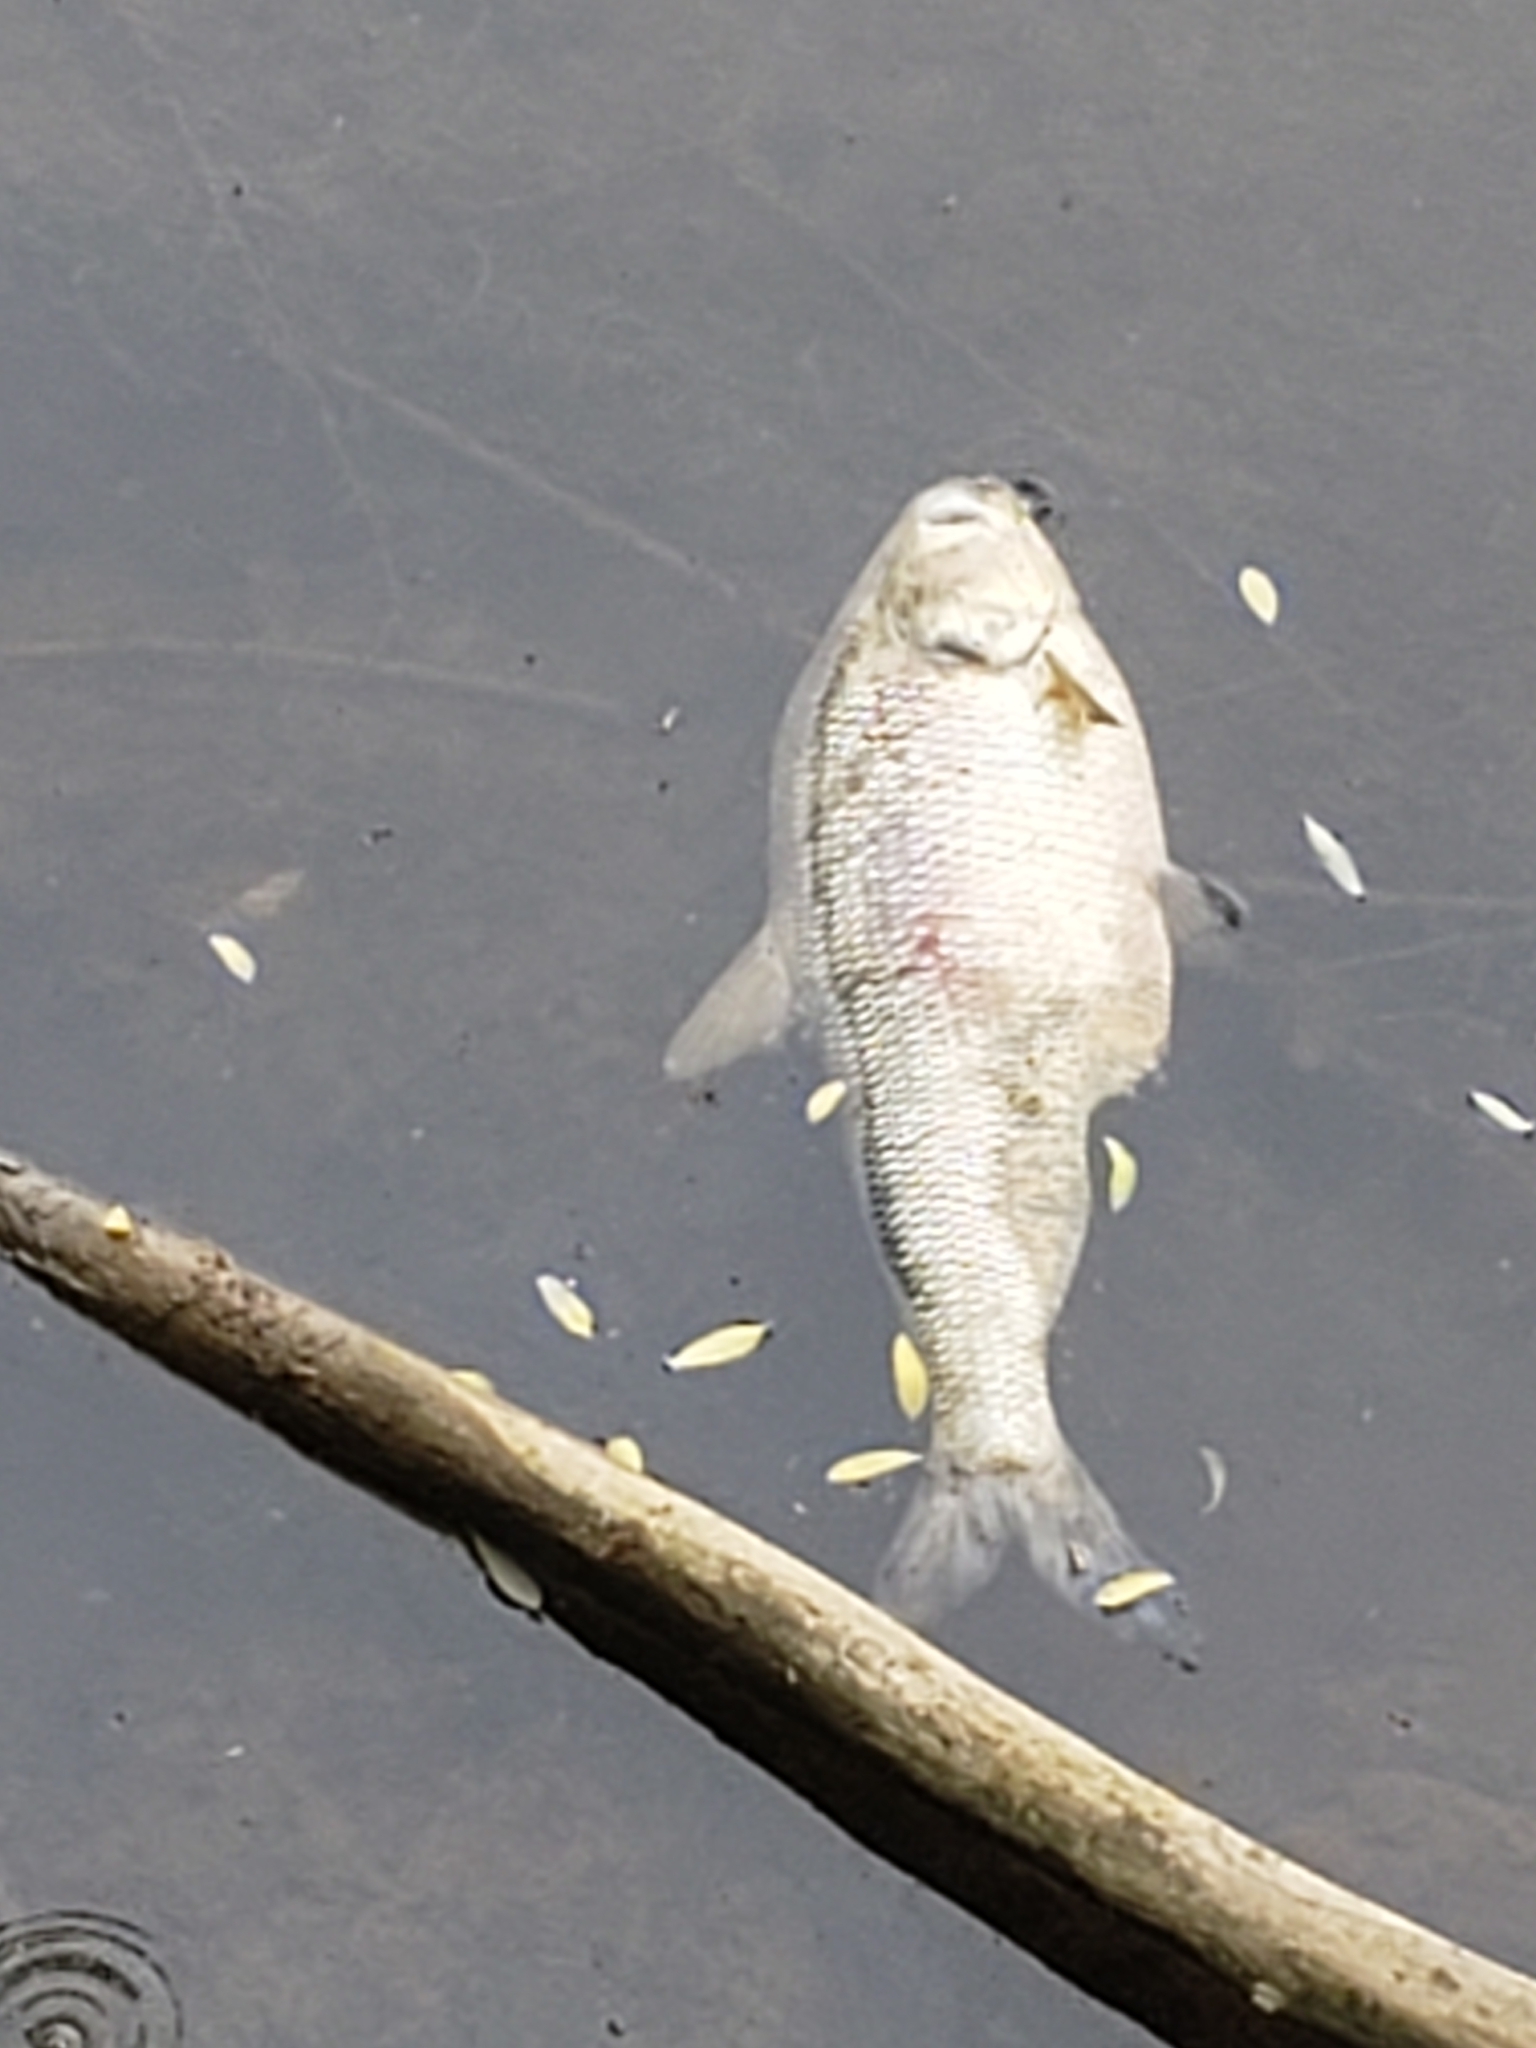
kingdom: Animalia
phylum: Chordata
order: Clupeiformes
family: Clupeidae
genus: Dorosoma
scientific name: Dorosoma cepedianum
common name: Gizzard shad
